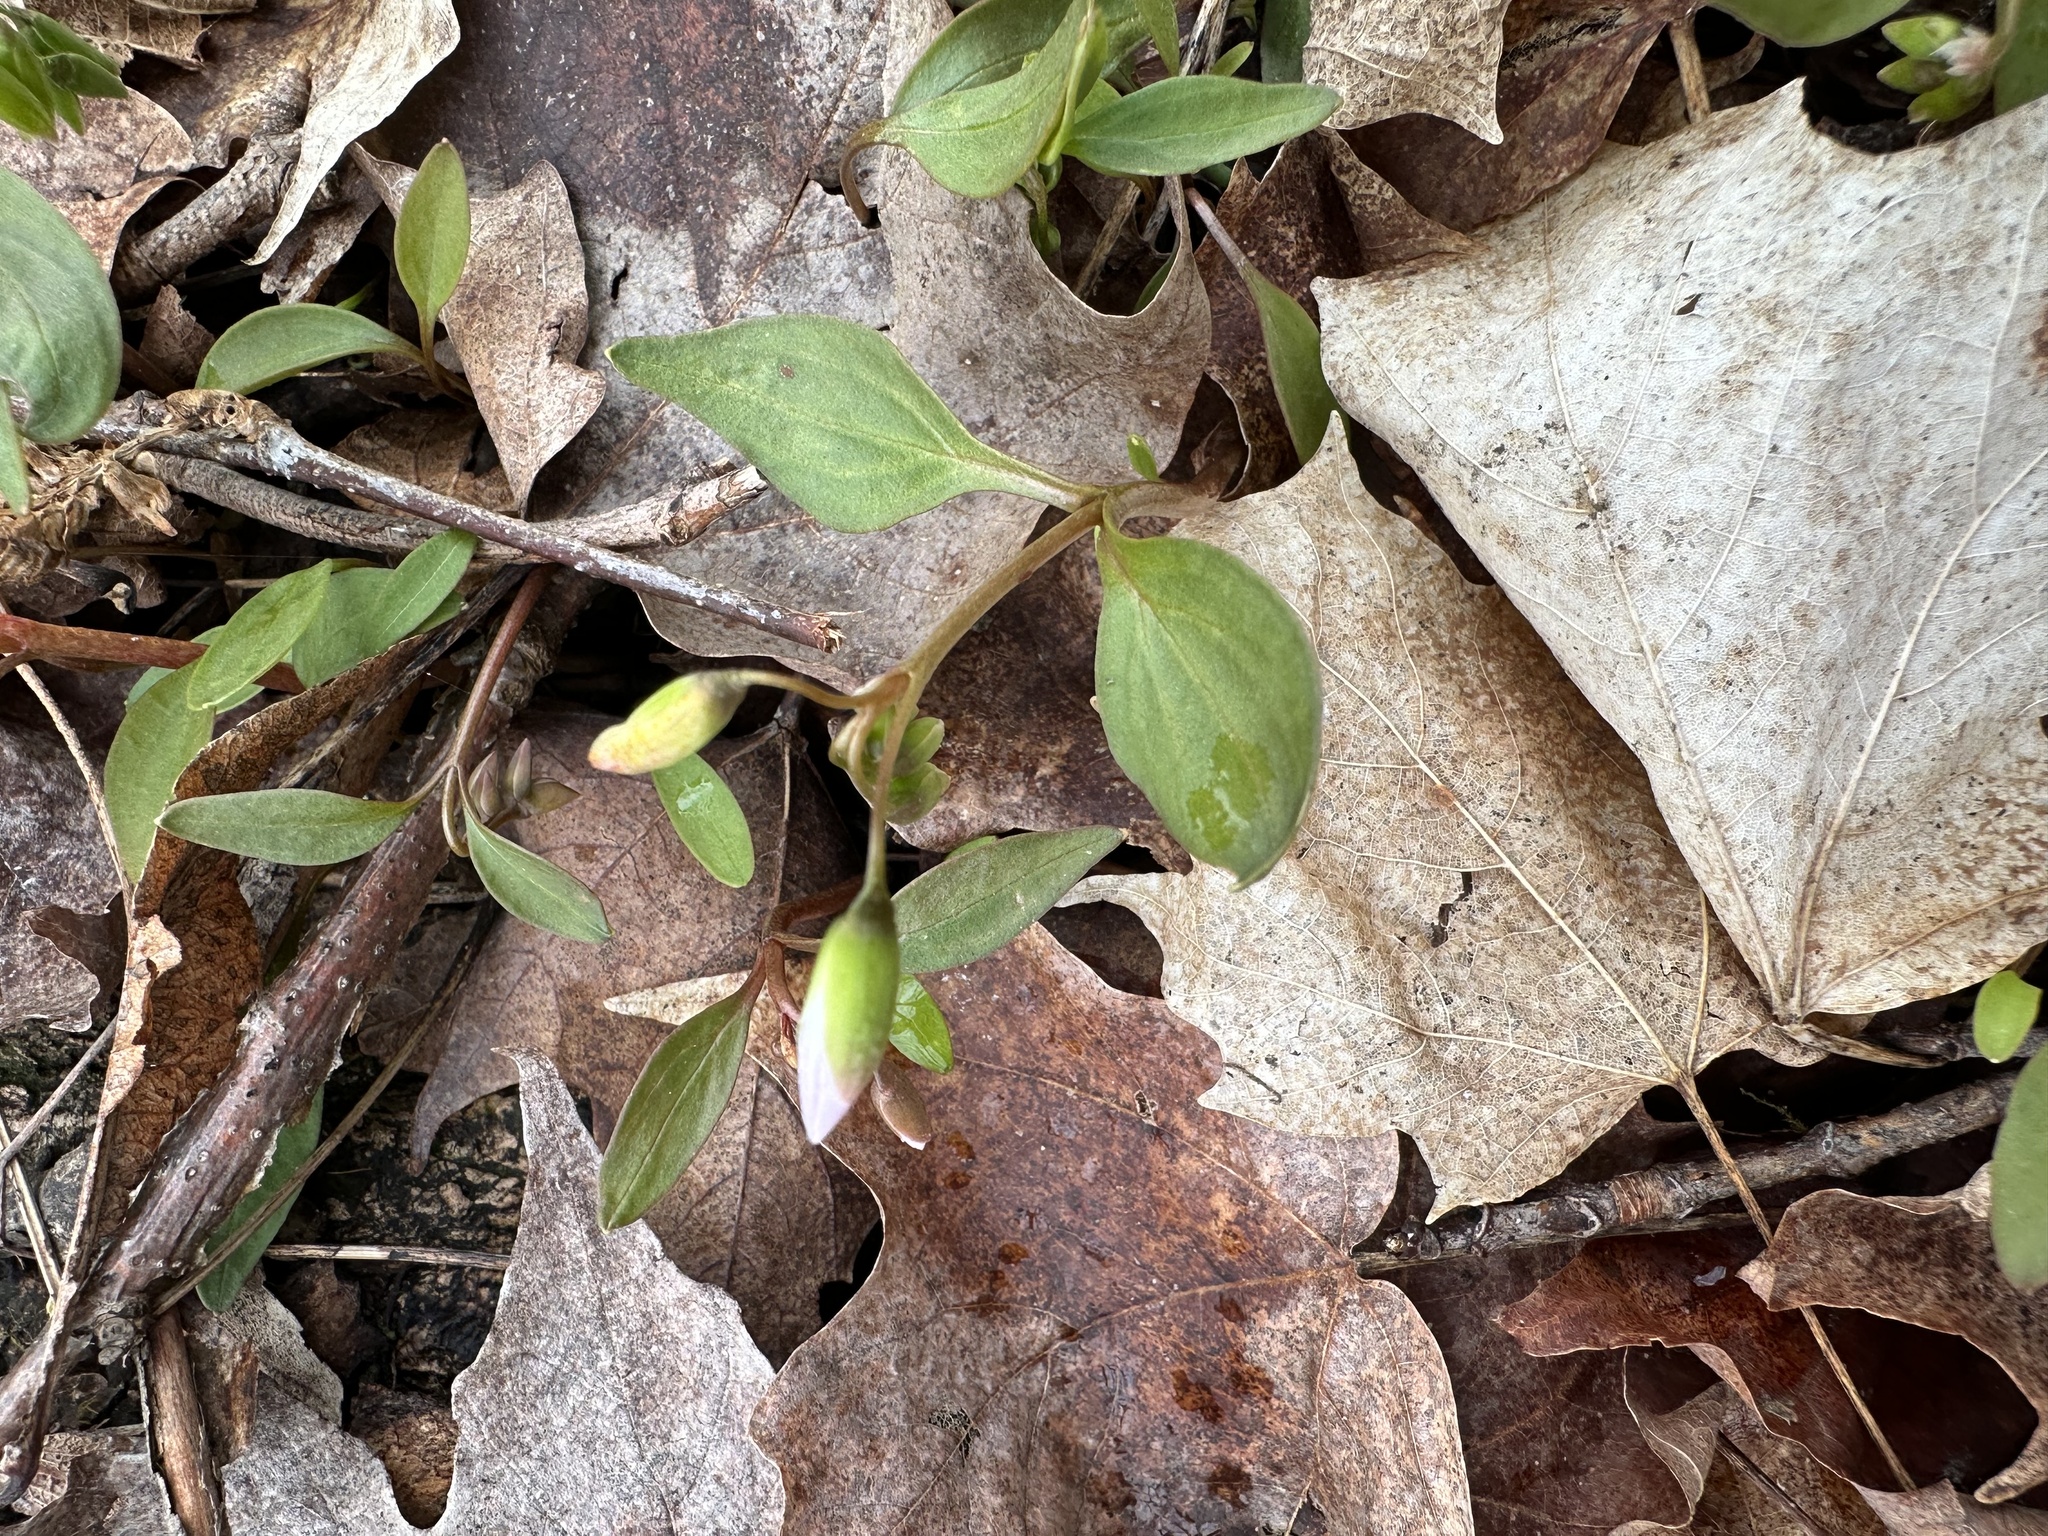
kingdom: Plantae
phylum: Tracheophyta
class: Magnoliopsida
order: Caryophyllales
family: Montiaceae
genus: Claytonia
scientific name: Claytonia caroliniana
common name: Carolina spring beauty
